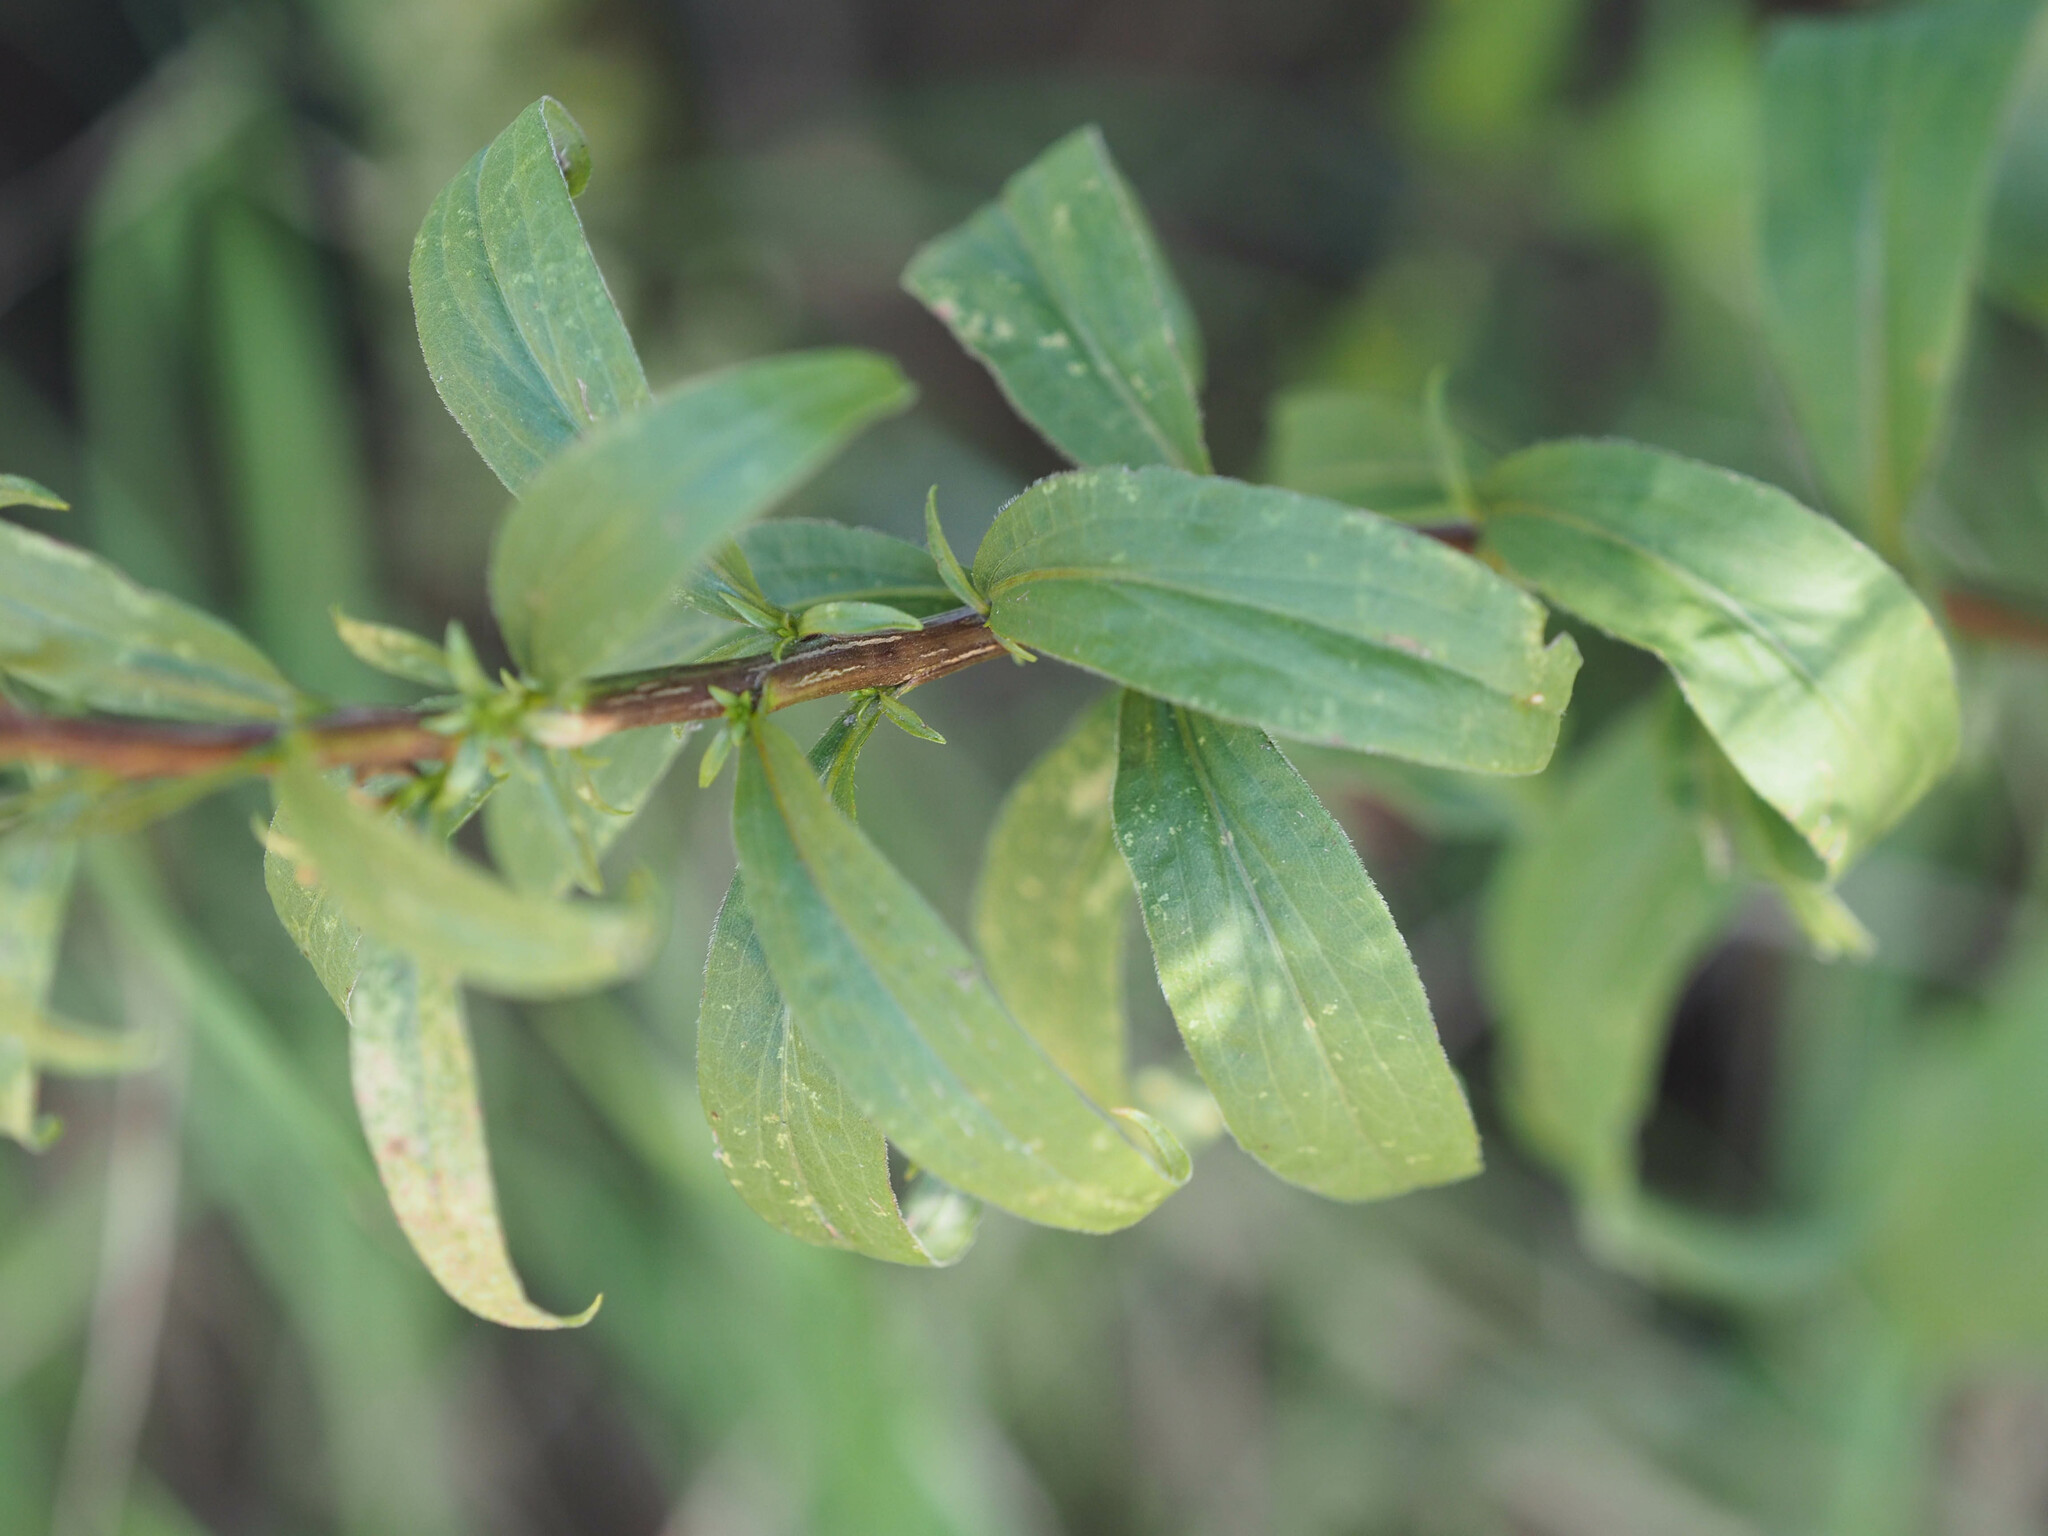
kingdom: Plantae
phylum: Tracheophyta
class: Magnoliopsida
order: Asterales
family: Asteraceae
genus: Solidago
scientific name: Solidago juncea
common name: Early goldenrod
